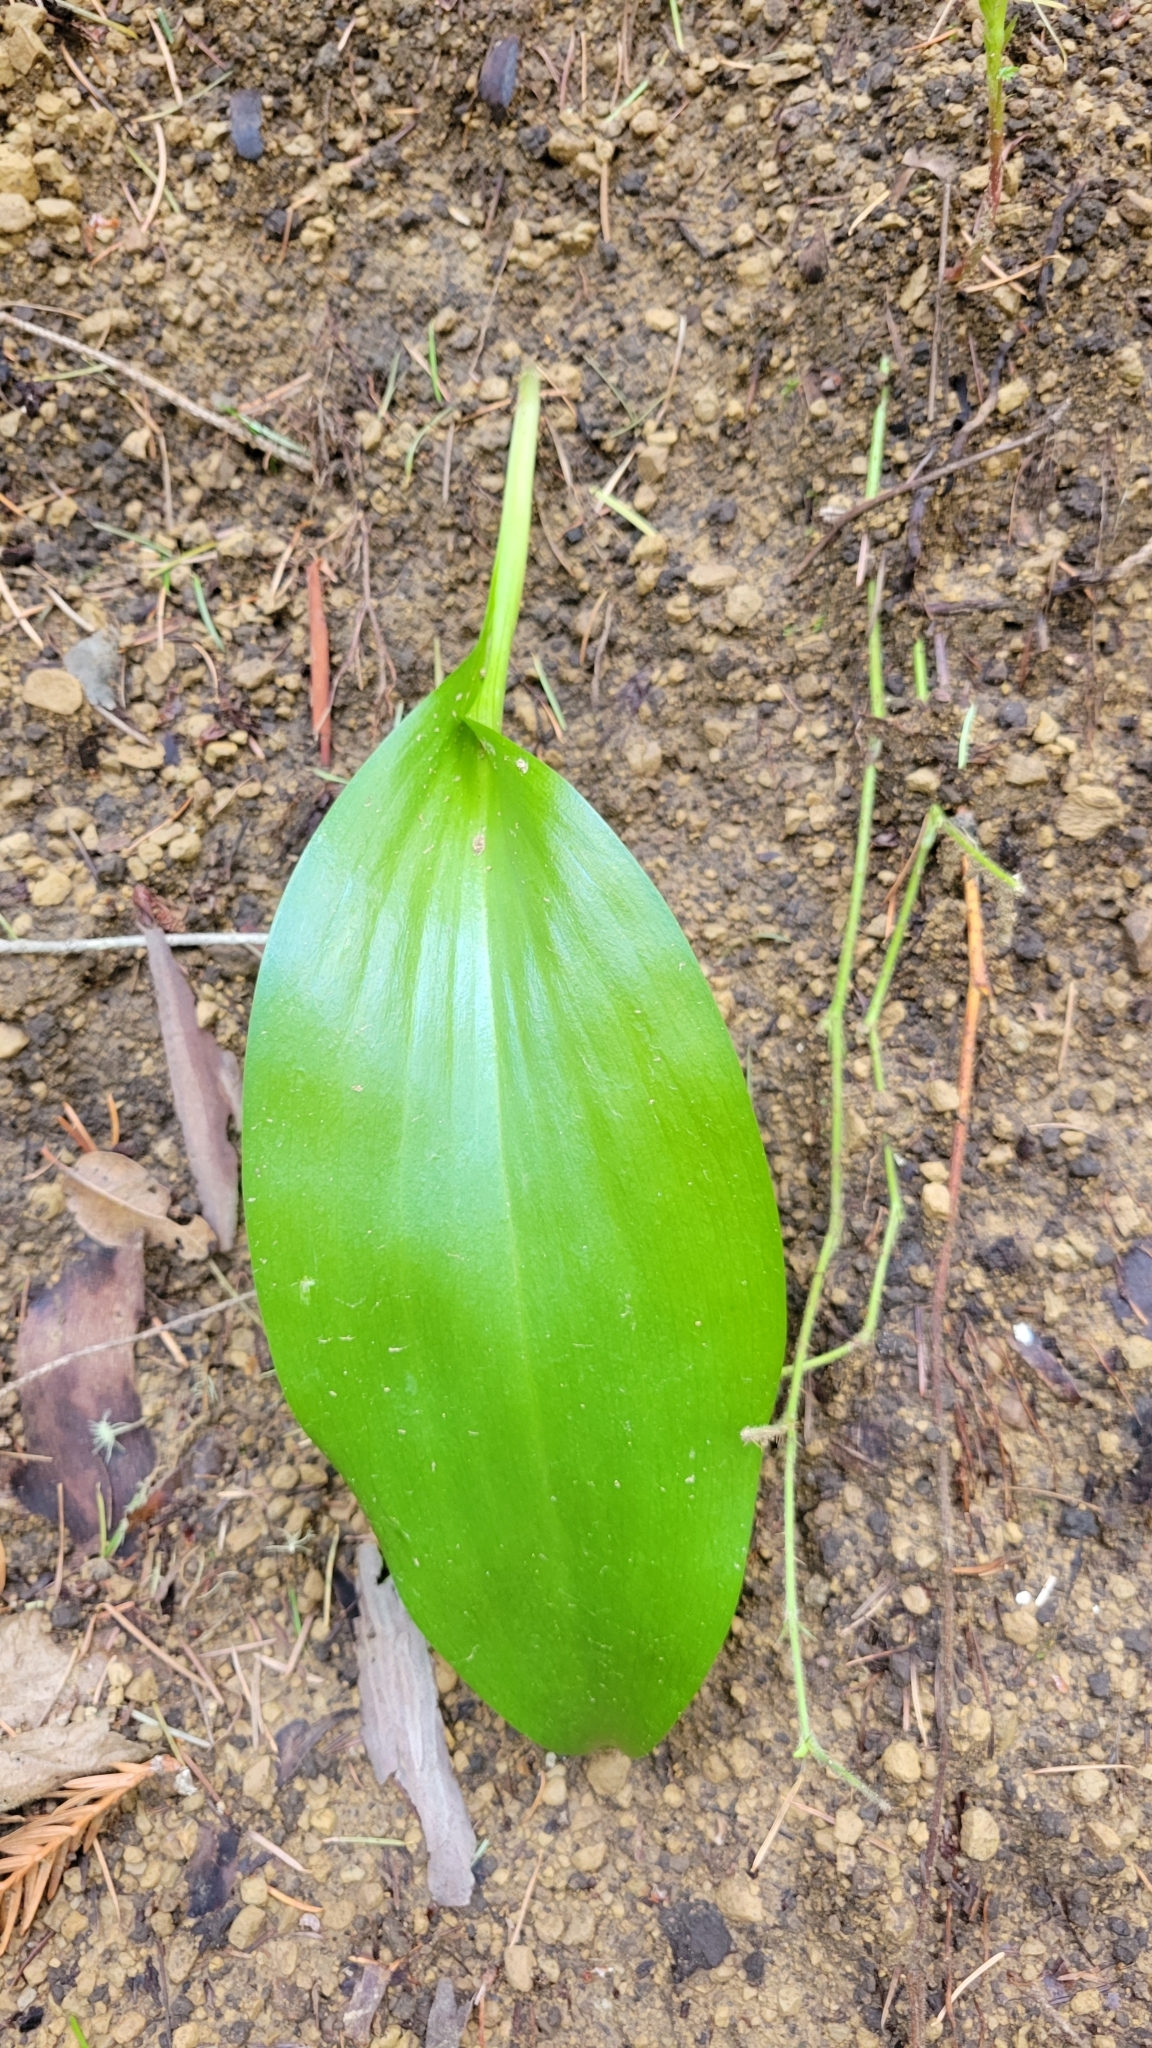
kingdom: Plantae
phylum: Tracheophyta
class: Liliopsida
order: Liliales
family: Liliaceae
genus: Fritillaria
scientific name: Fritillaria affinis
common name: Ojai fritillary
